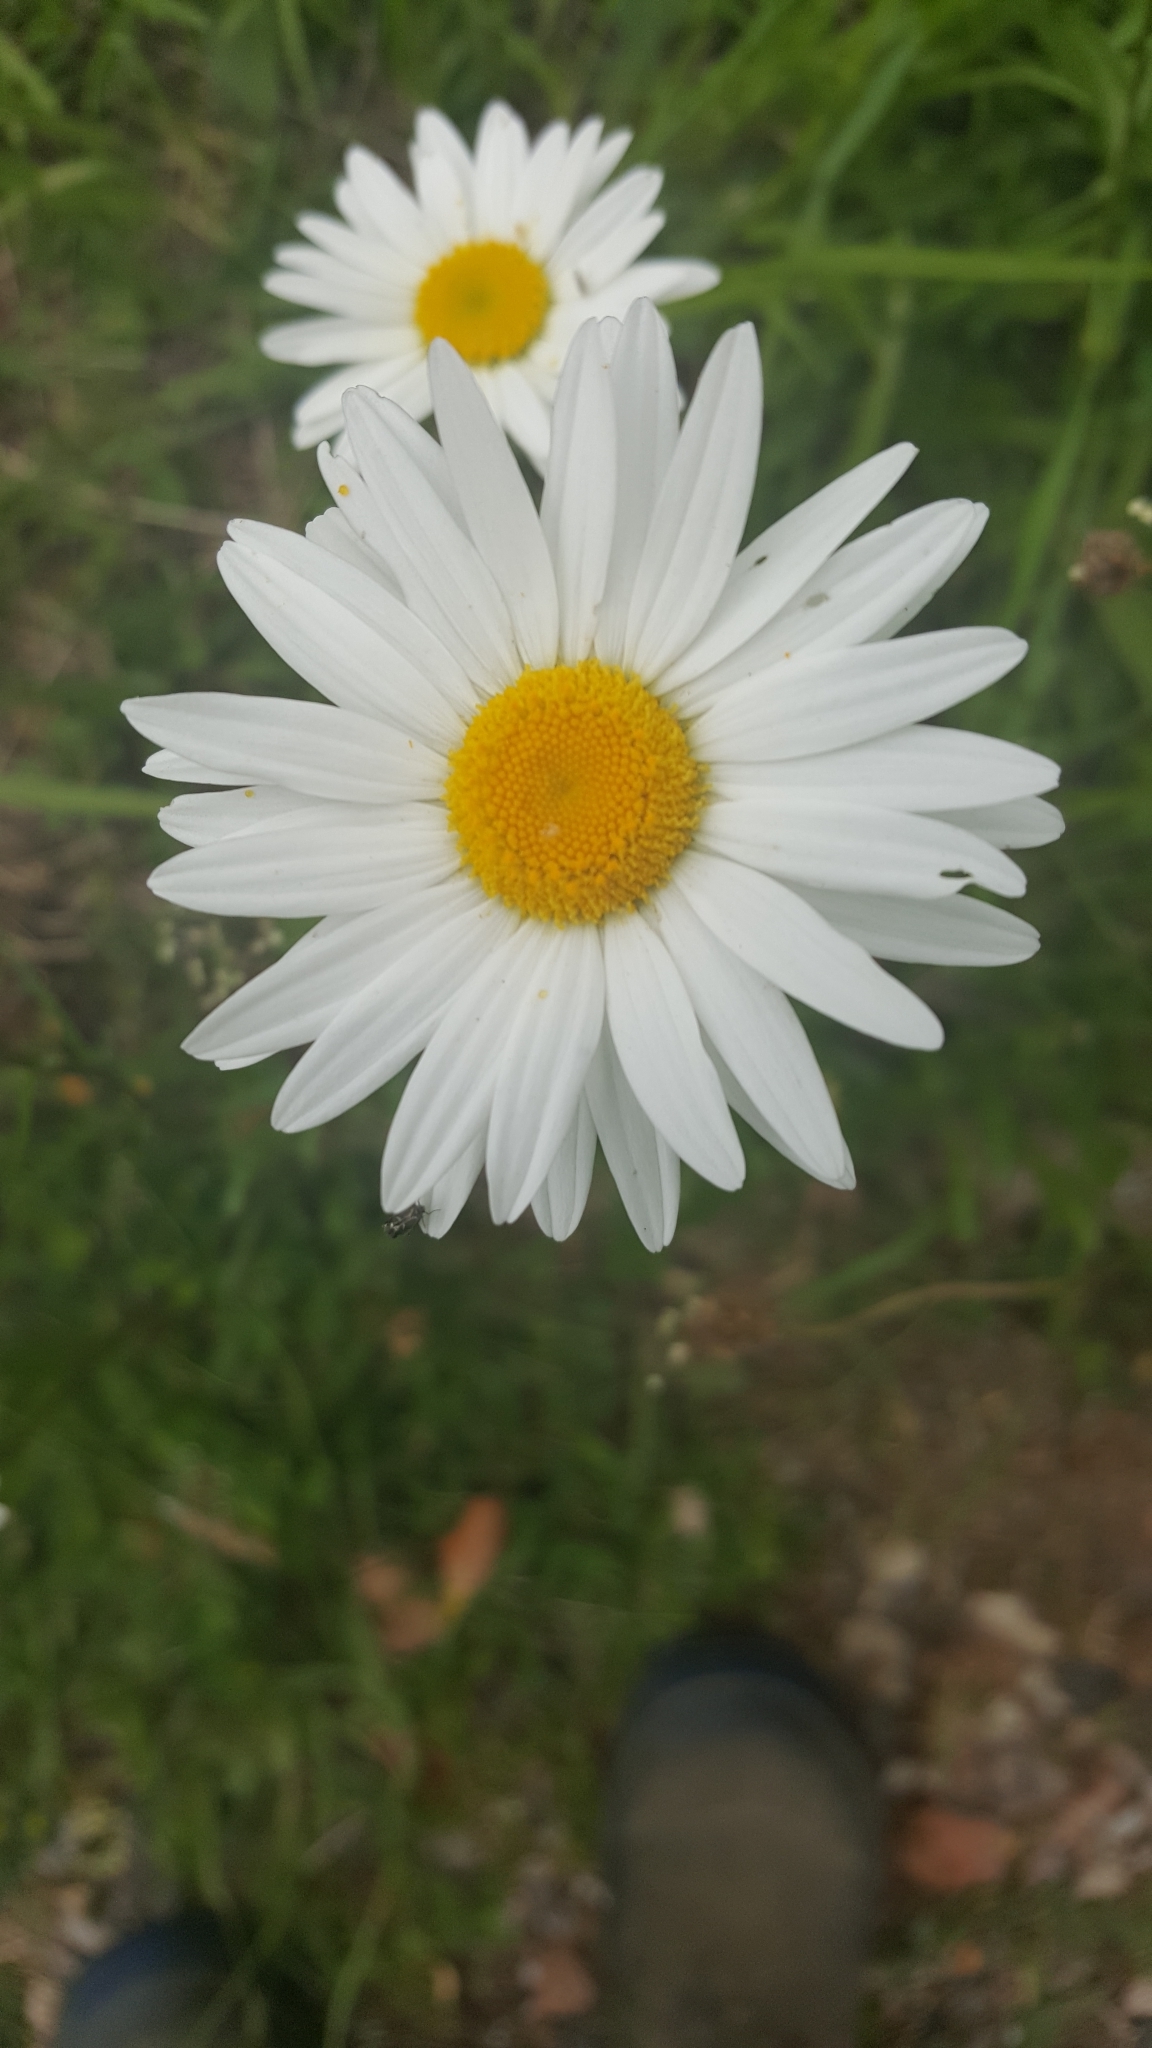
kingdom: Plantae
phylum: Tracheophyta
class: Magnoliopsida
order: Asterales
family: Asteraceae
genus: Leucanthemum
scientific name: Leucanthemum vulgare
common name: Oxeye daisy
